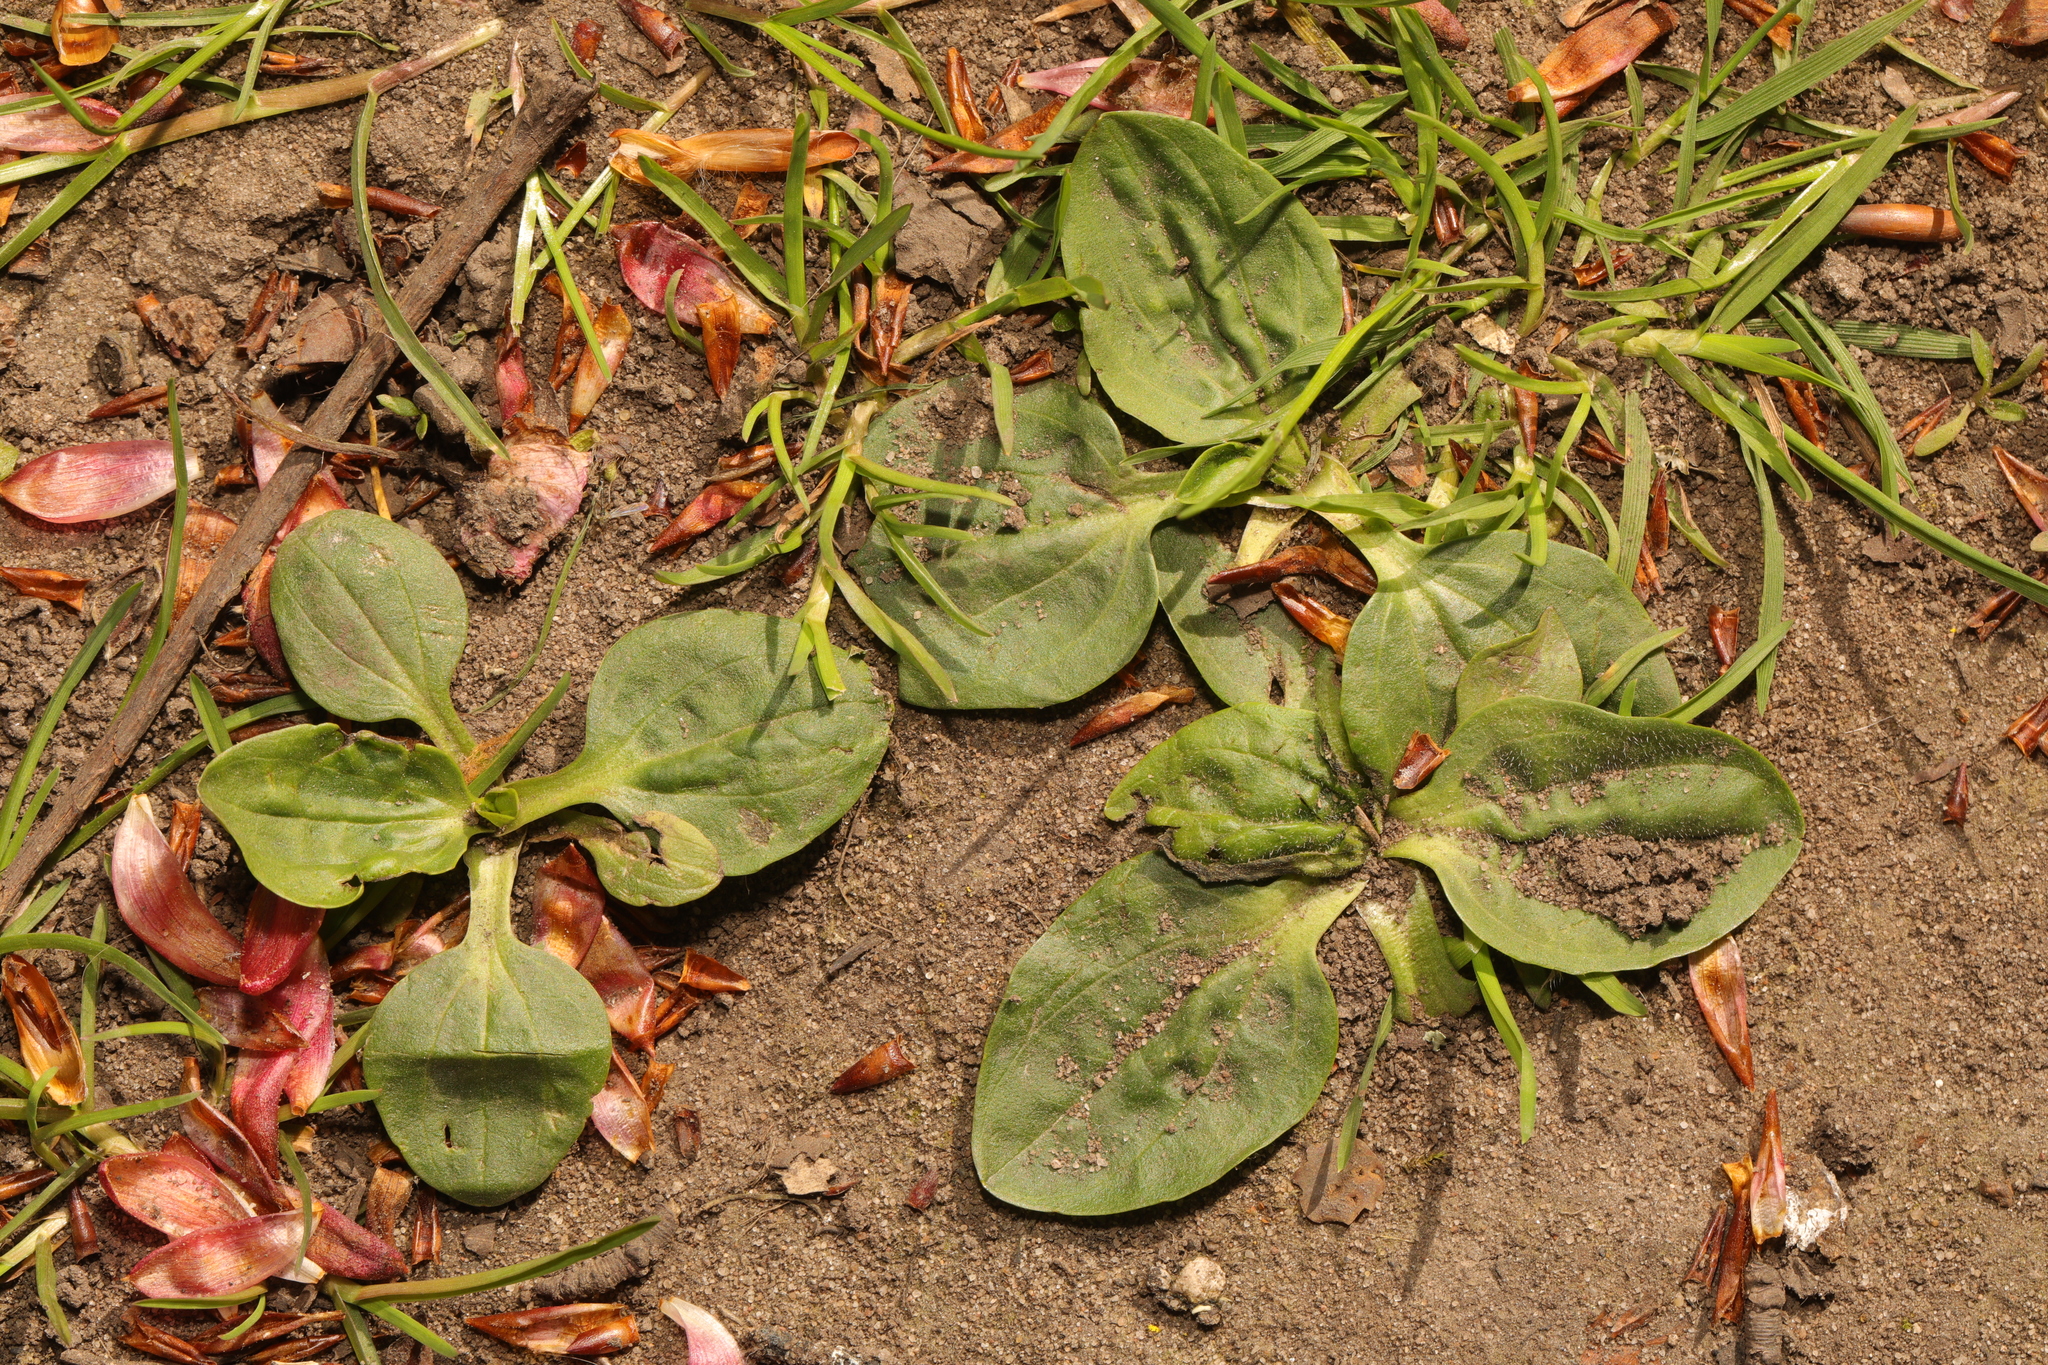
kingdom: Plantae
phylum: Tracheophyta
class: Magnoliopsida
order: Lamiales
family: Plantaginaceae
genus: Plantago
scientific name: Plantago major
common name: Common plantain
